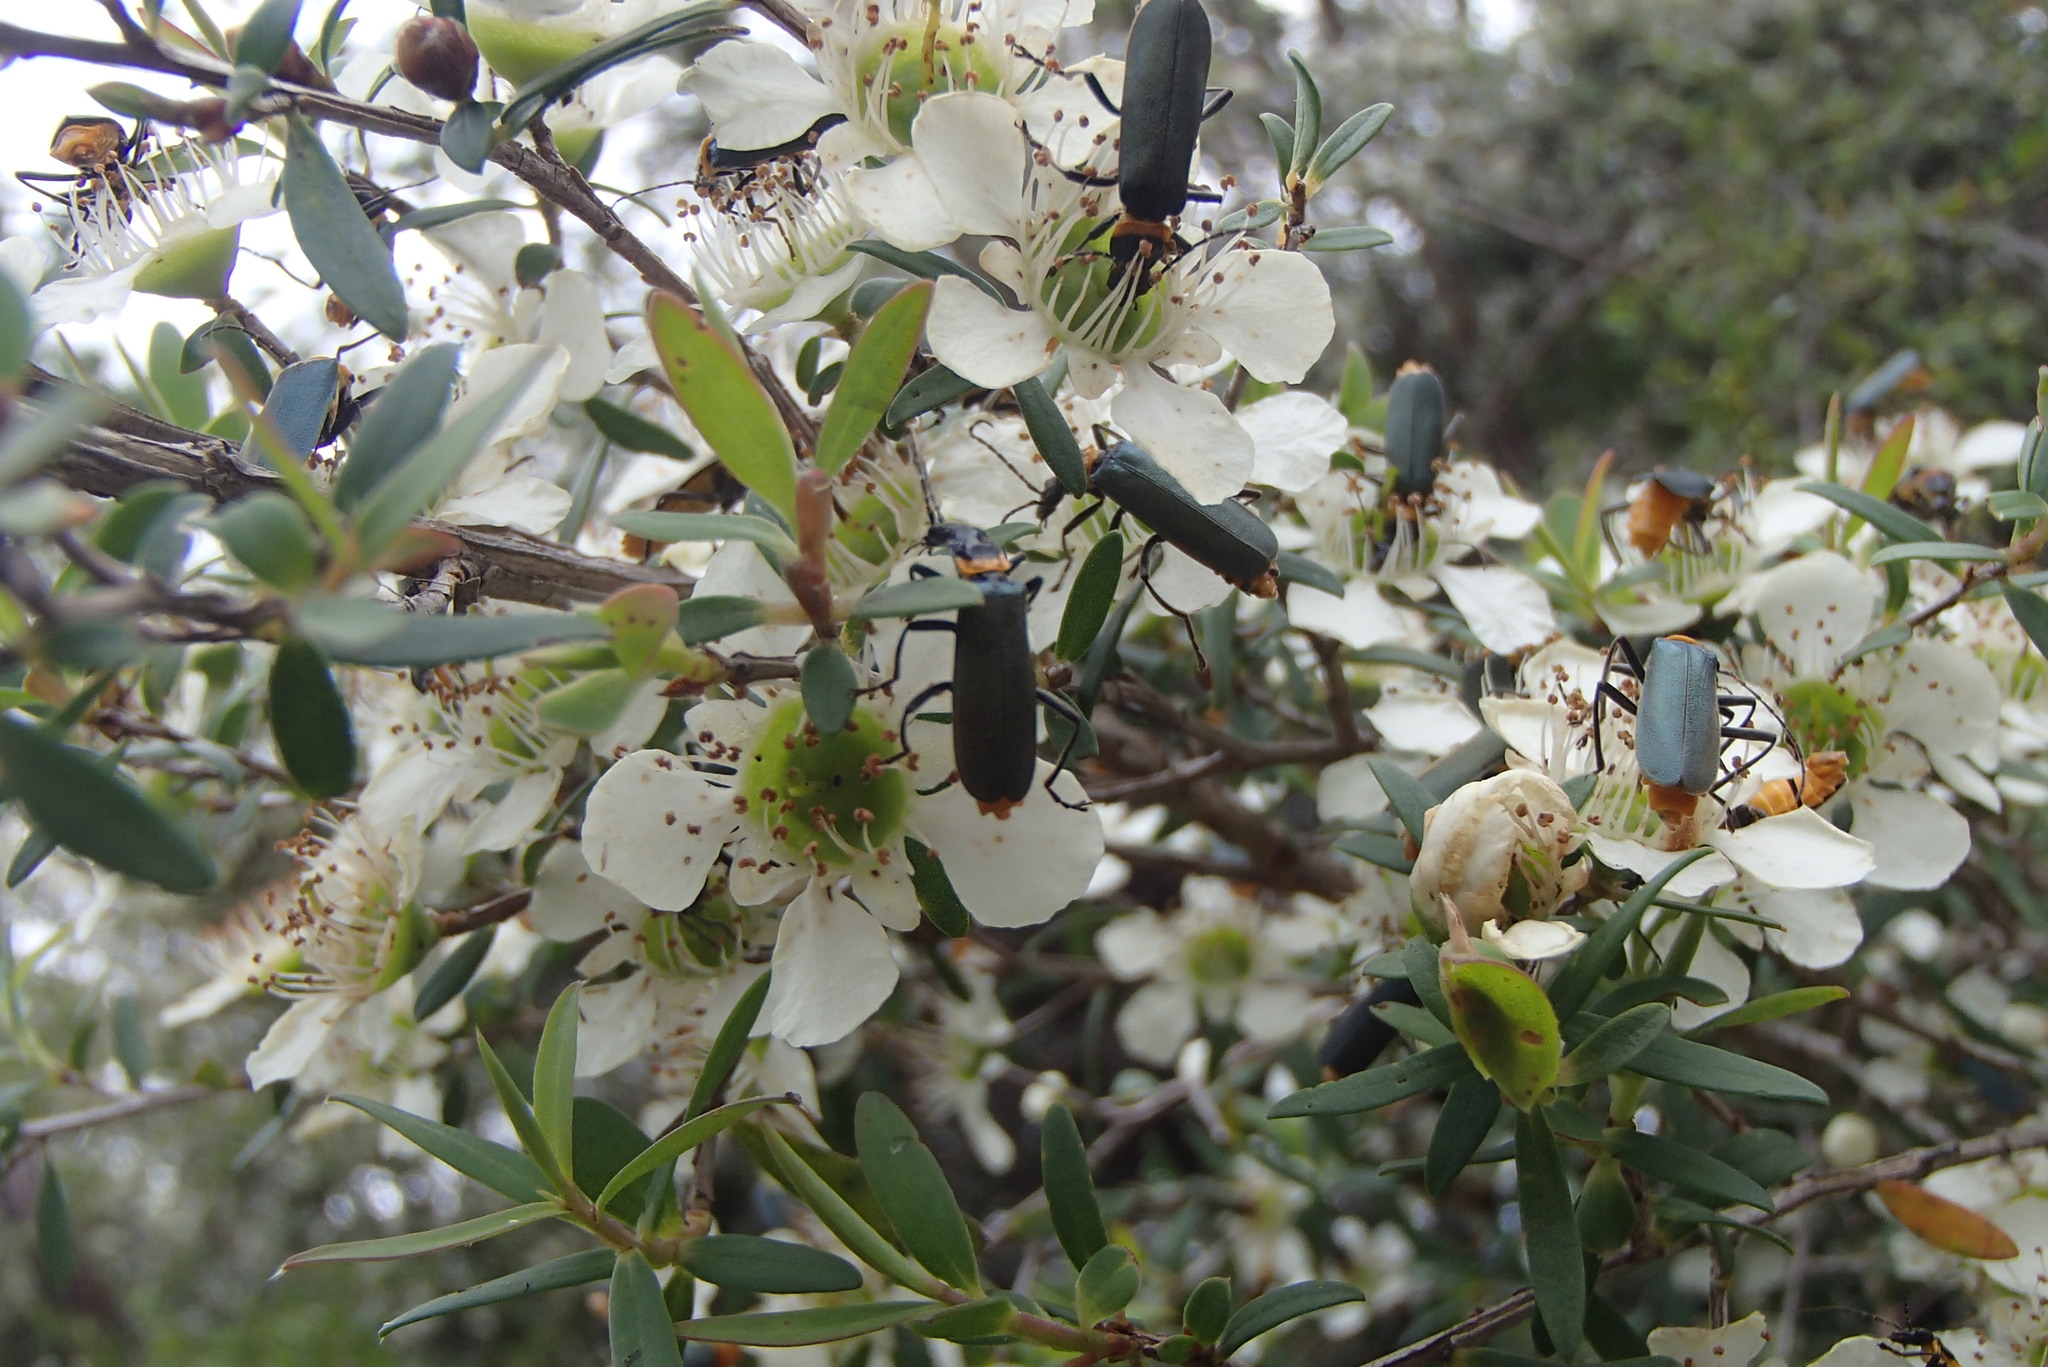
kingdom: Animalia
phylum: Arthropoda
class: Insecta
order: Coleoptera
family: Cantharidae
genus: Chauliognathus
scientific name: Chauliognathus
